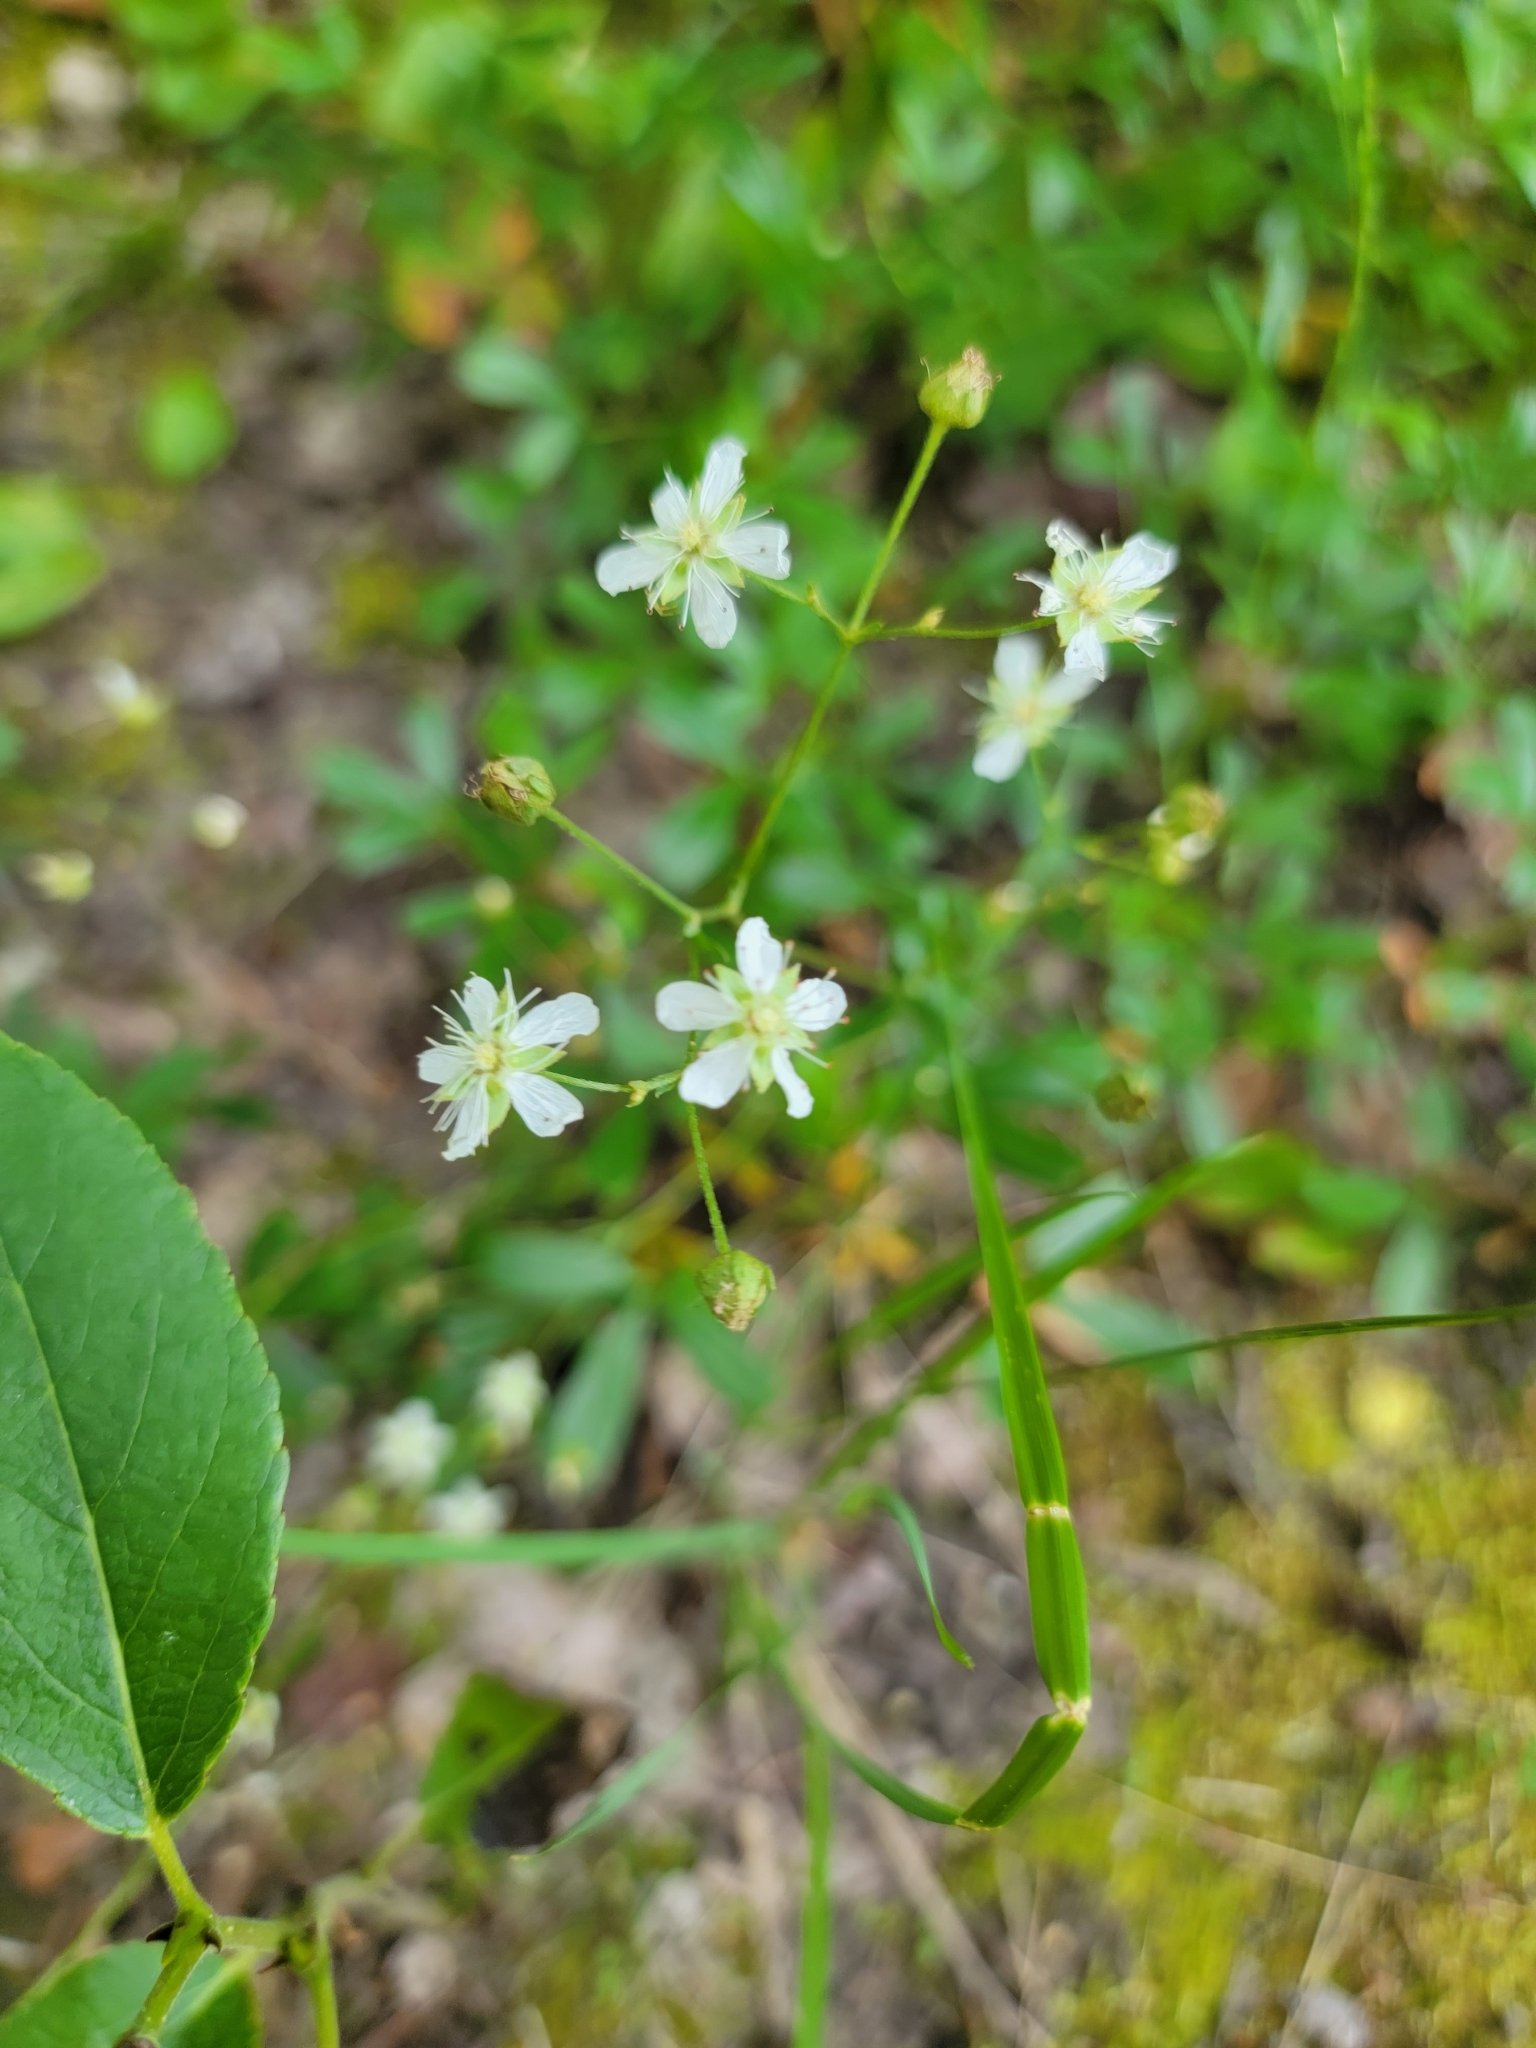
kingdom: Plantae
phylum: Tracheophyta
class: Magnoliopsida
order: Rosales
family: Rosaceae
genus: Sibbaldia
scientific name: Sibbaldia tridentata
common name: Three-toothed cinquefoil
